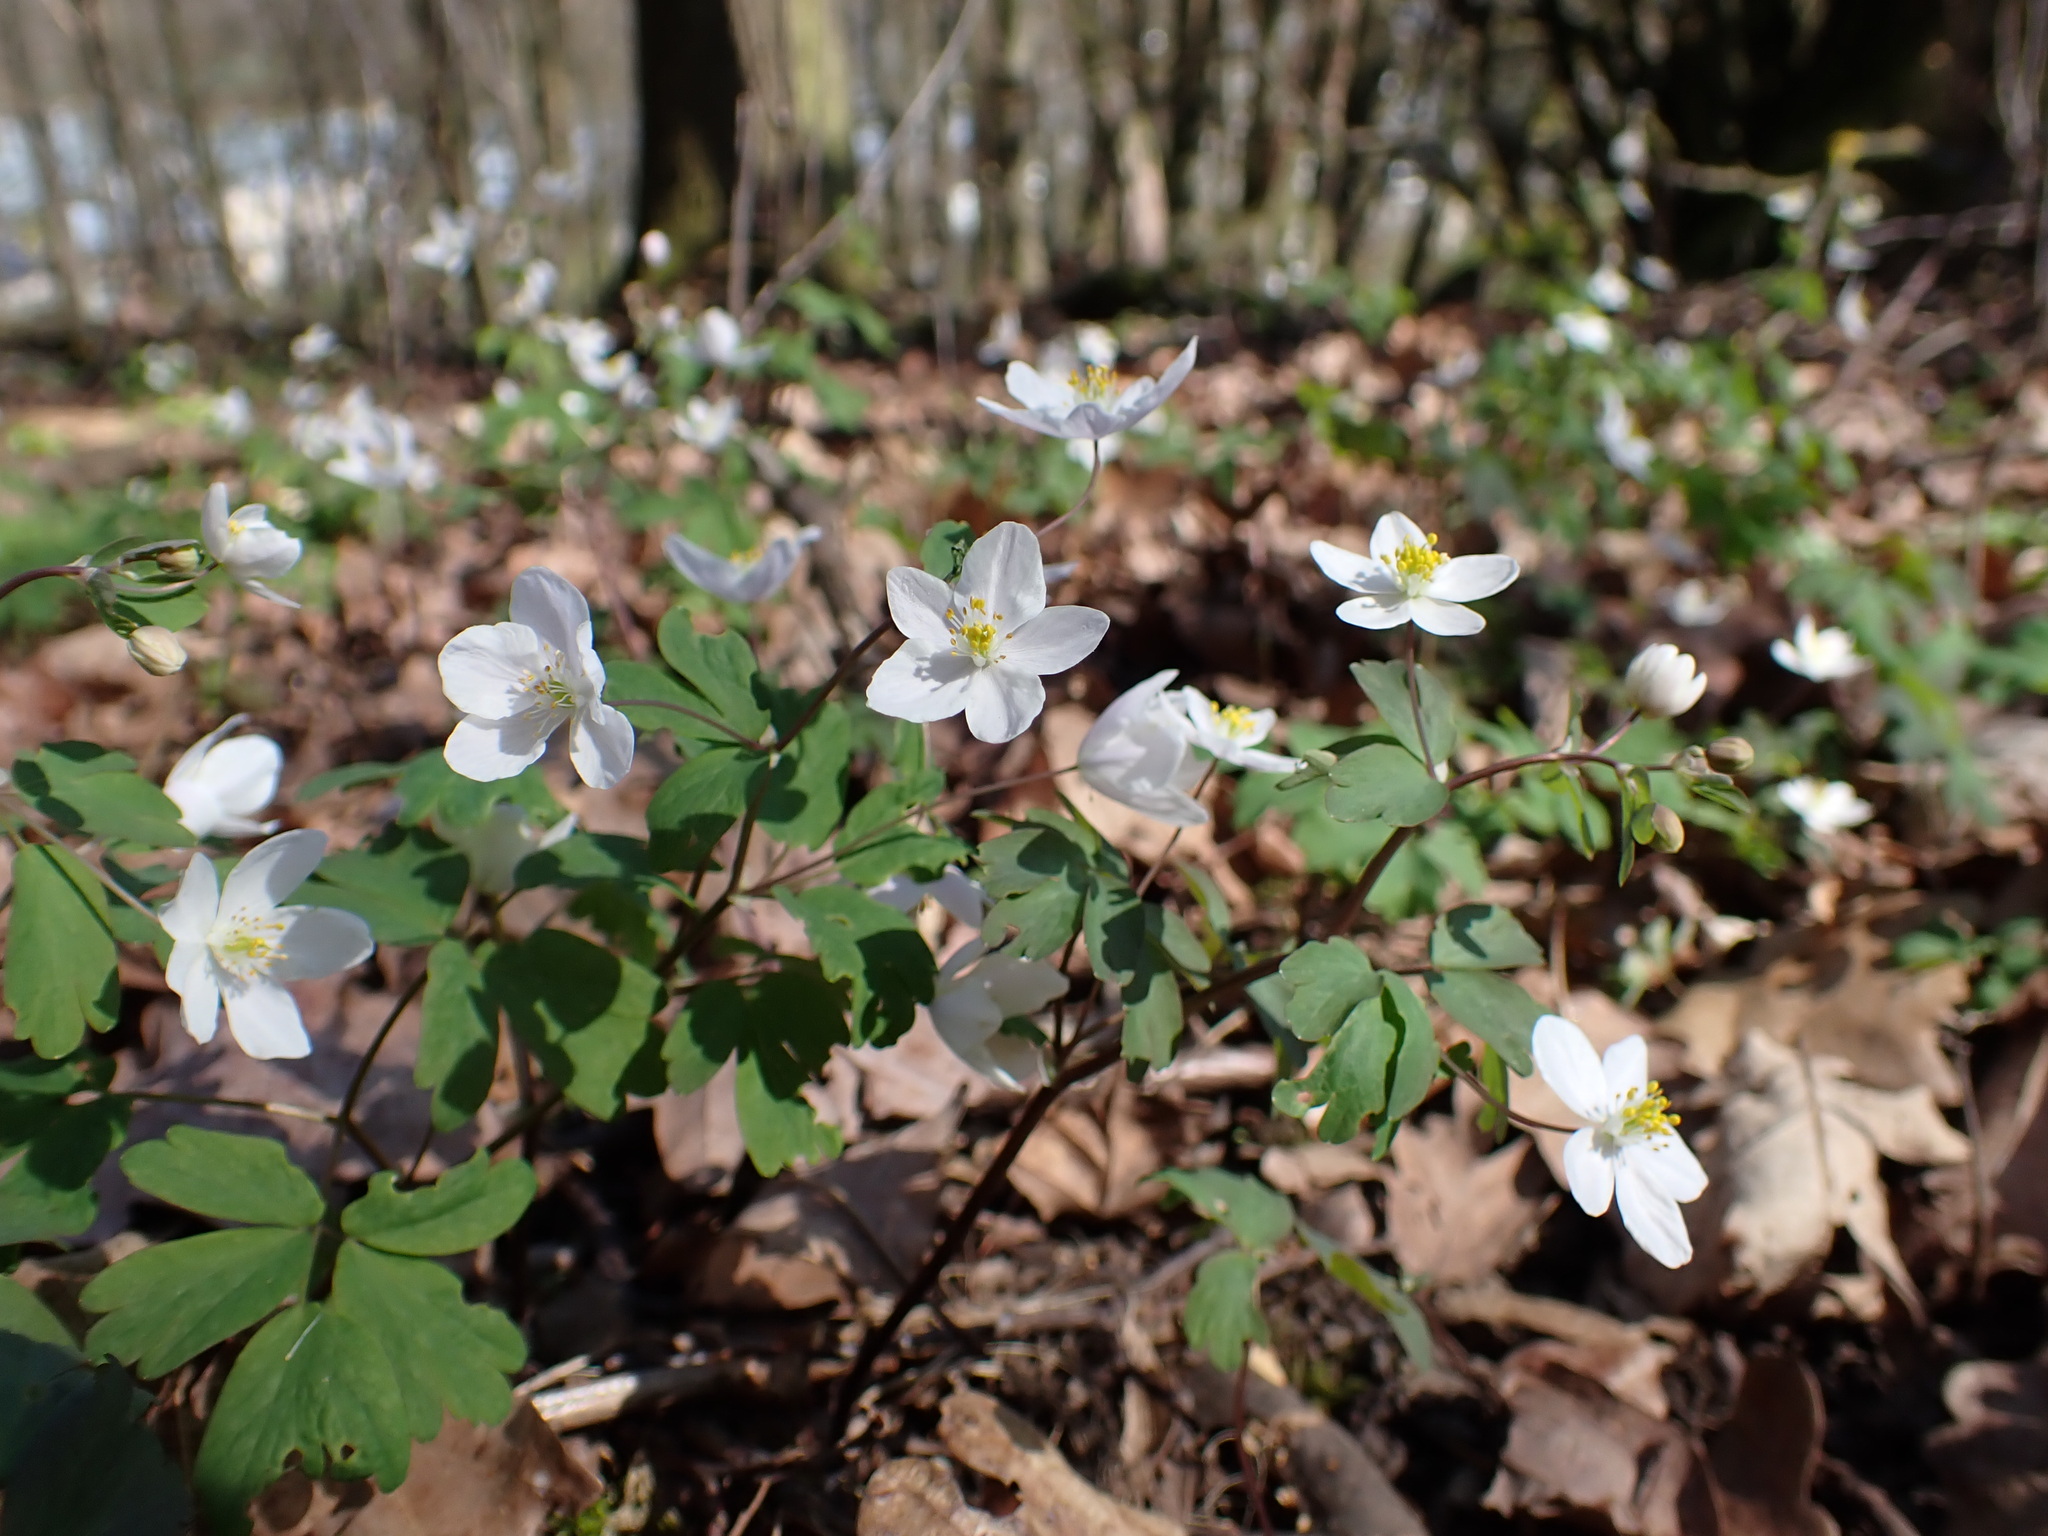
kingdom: Plantae
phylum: Tracheophyta
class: Magnoliopsida
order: Ranunculales
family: Ranunculaceae
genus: Isopyrum
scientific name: Isopyrum thalictroides
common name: Isopyrum
